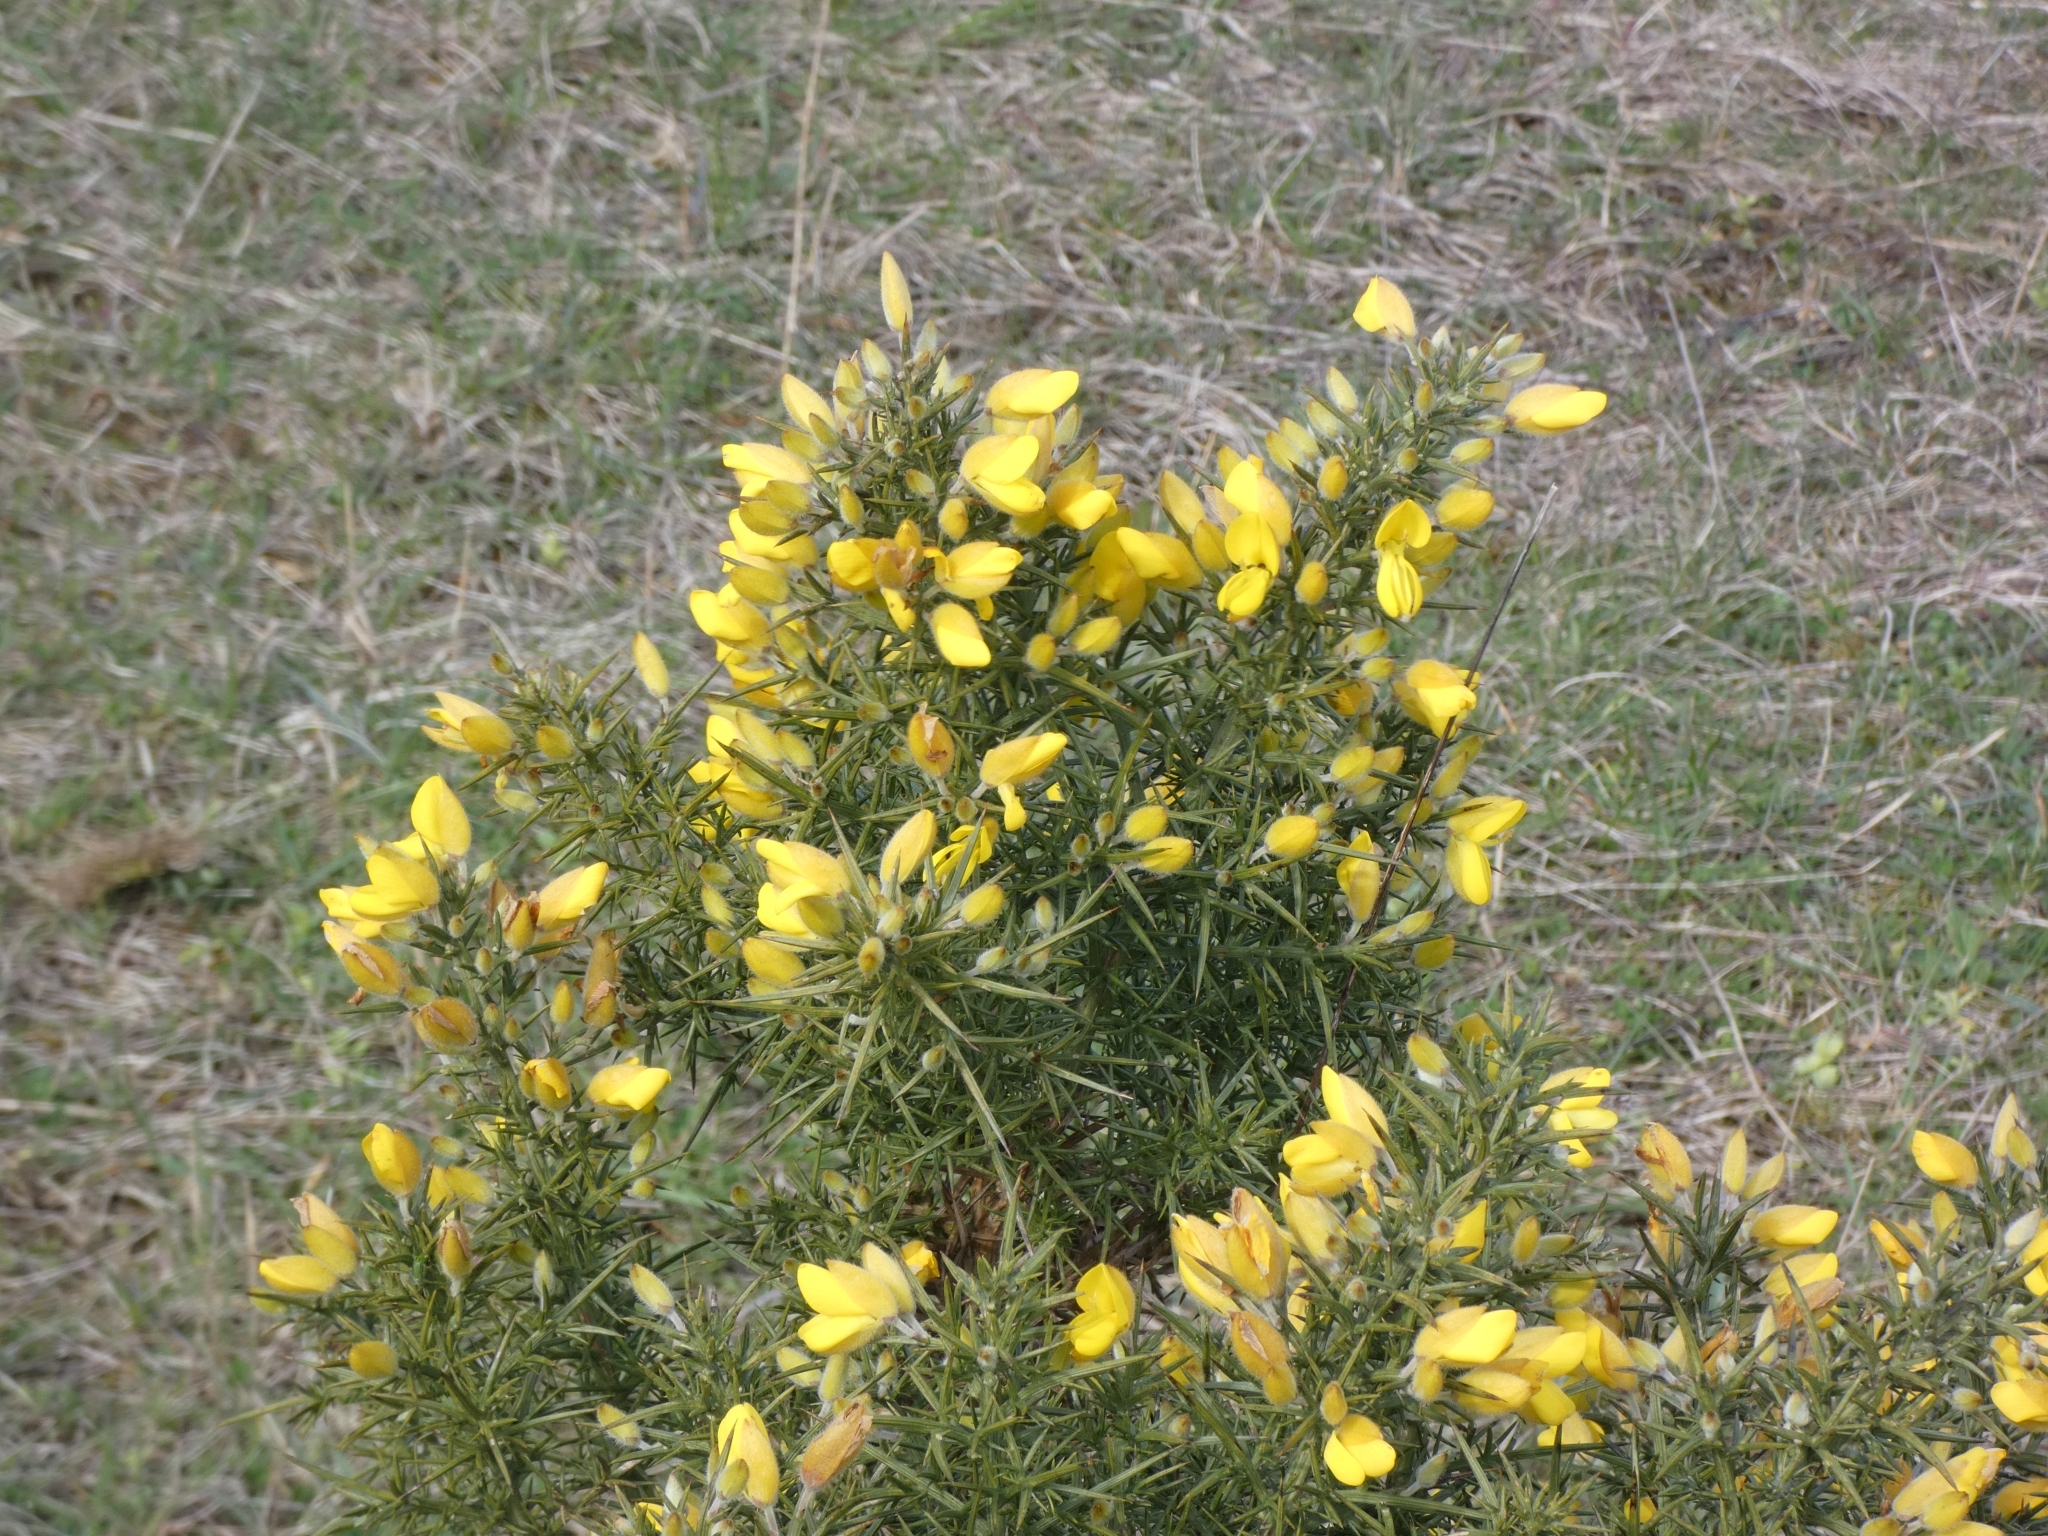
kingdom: Plantae
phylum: Tracheophyta
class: Magnoliopsida
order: Fabales
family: Fabaceae
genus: Ulex
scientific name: Ulex europaeus
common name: Common gorse
